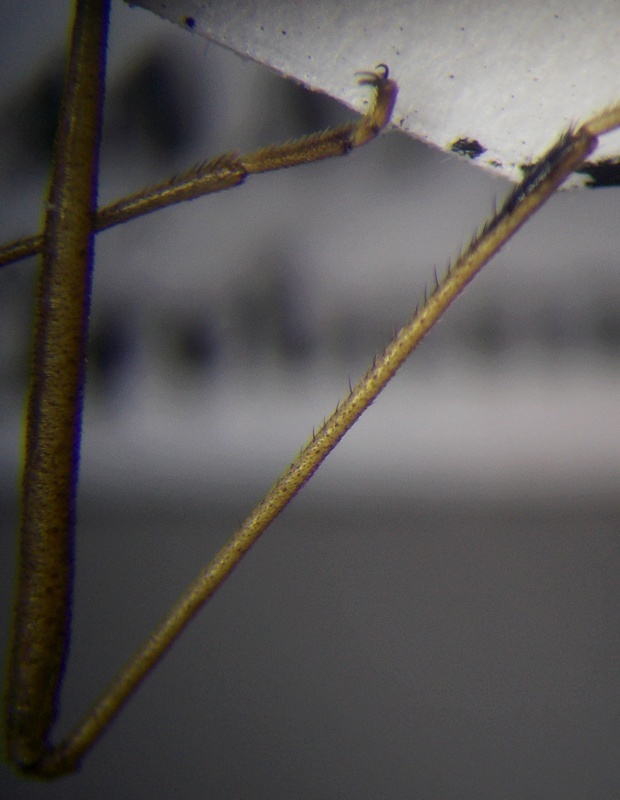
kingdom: Animalia
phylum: Arthropoda
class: Insecta
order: Hemiptera
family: Rhopalidae
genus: Chorosoma
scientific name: Chorosoma gracile
